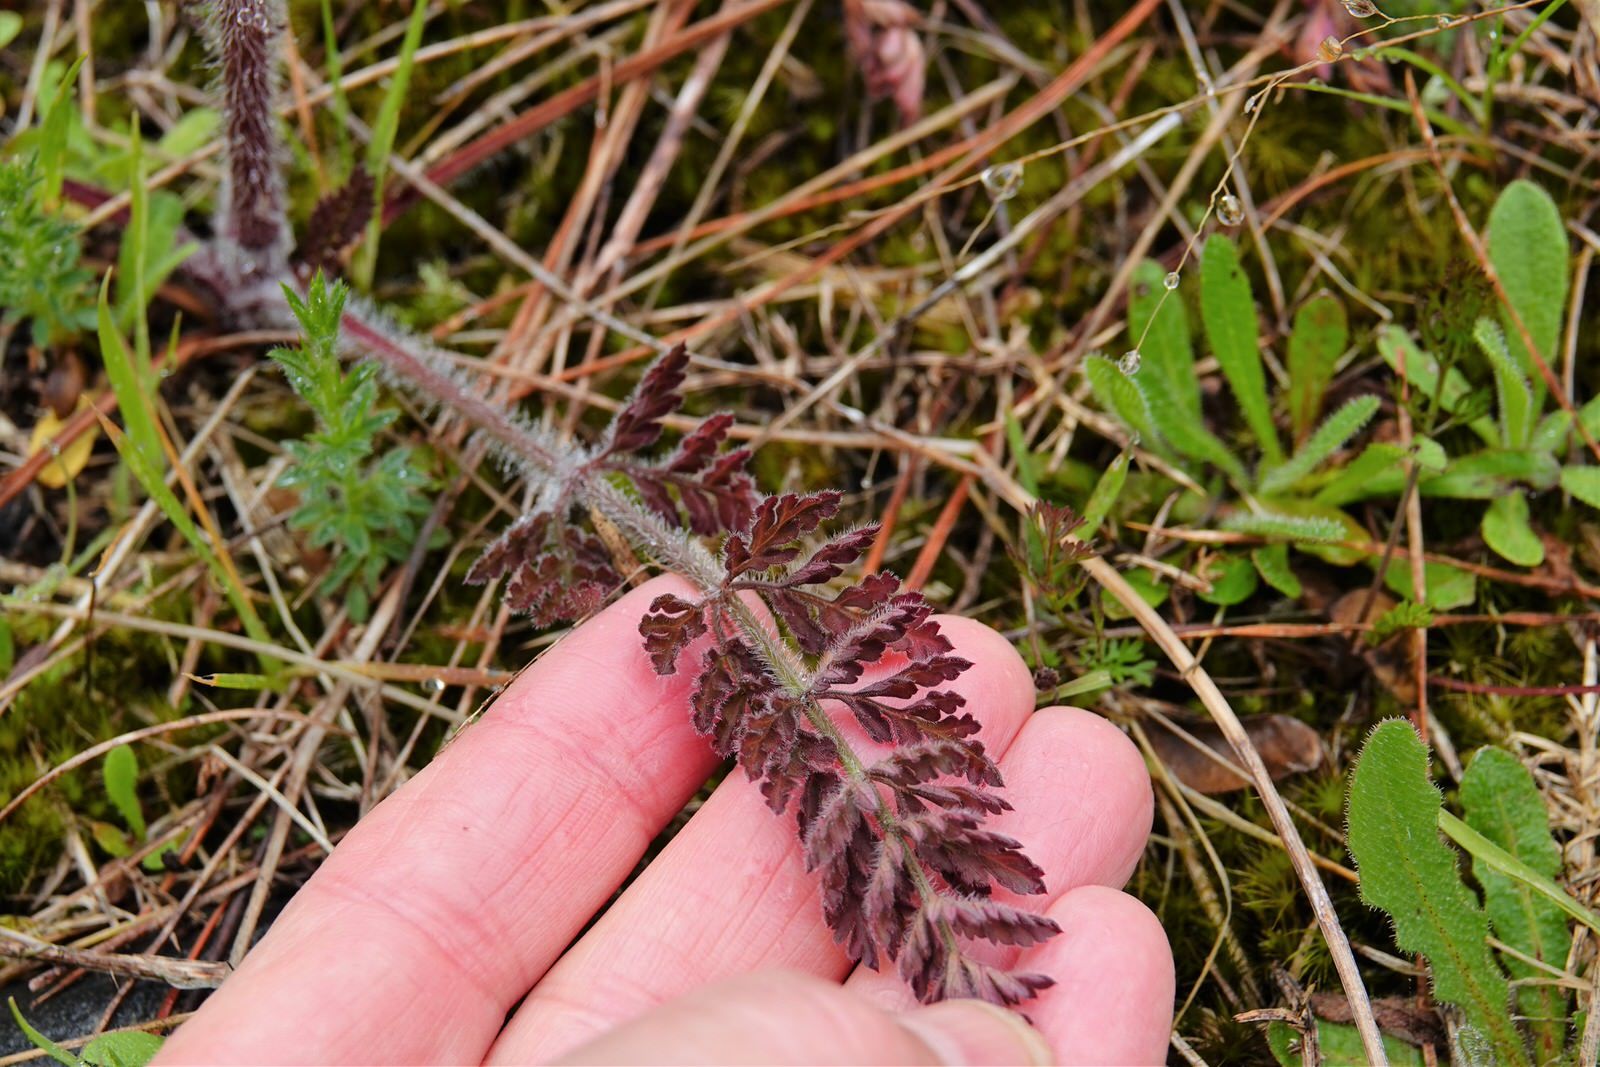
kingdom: Plantae
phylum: Tracheophyta
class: Magnoliopsida
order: Apiales
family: Apiaceae
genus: Daucus
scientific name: Daucus carota
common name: Wild carrot
